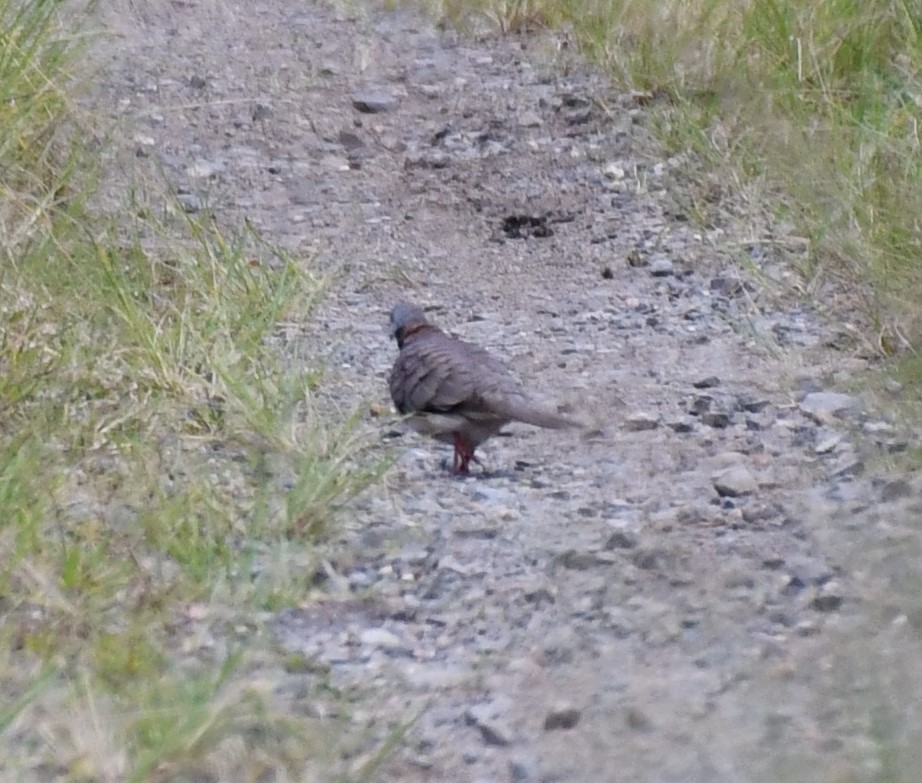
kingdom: Animalia
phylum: Chordata
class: Aves
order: Columbiformes
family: Columbidae
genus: Geopelia
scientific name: Geopelia humeralis
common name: Bar-shouldered dove
